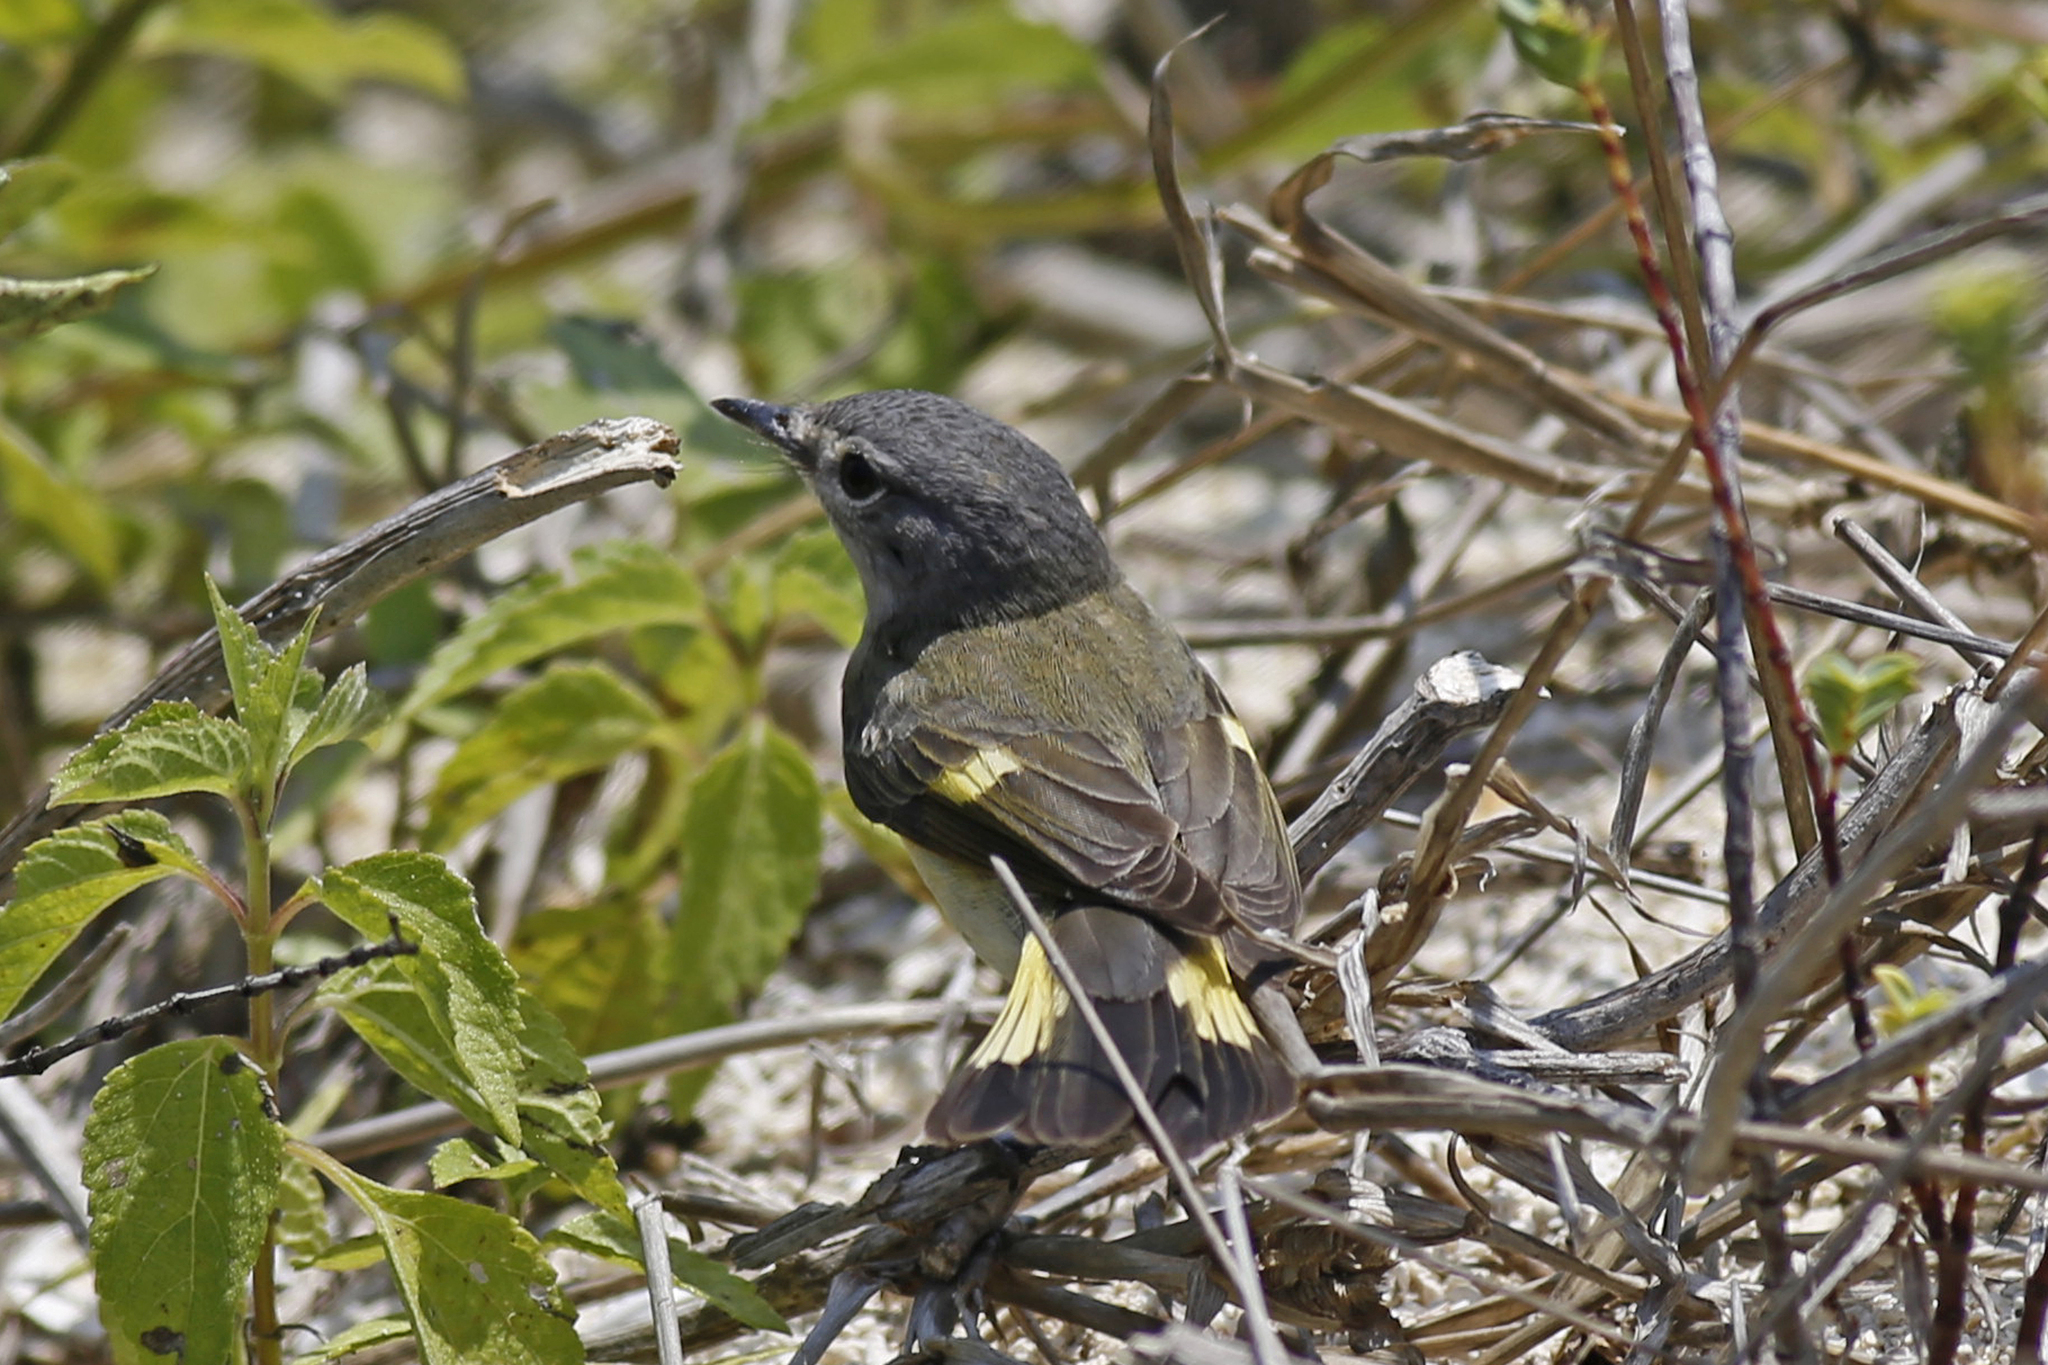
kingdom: Animalia
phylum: Chordata
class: Aves
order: Passeriformes
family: Parulidae
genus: Setophaga
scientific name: Setophaga ruticilla
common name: American redstart
